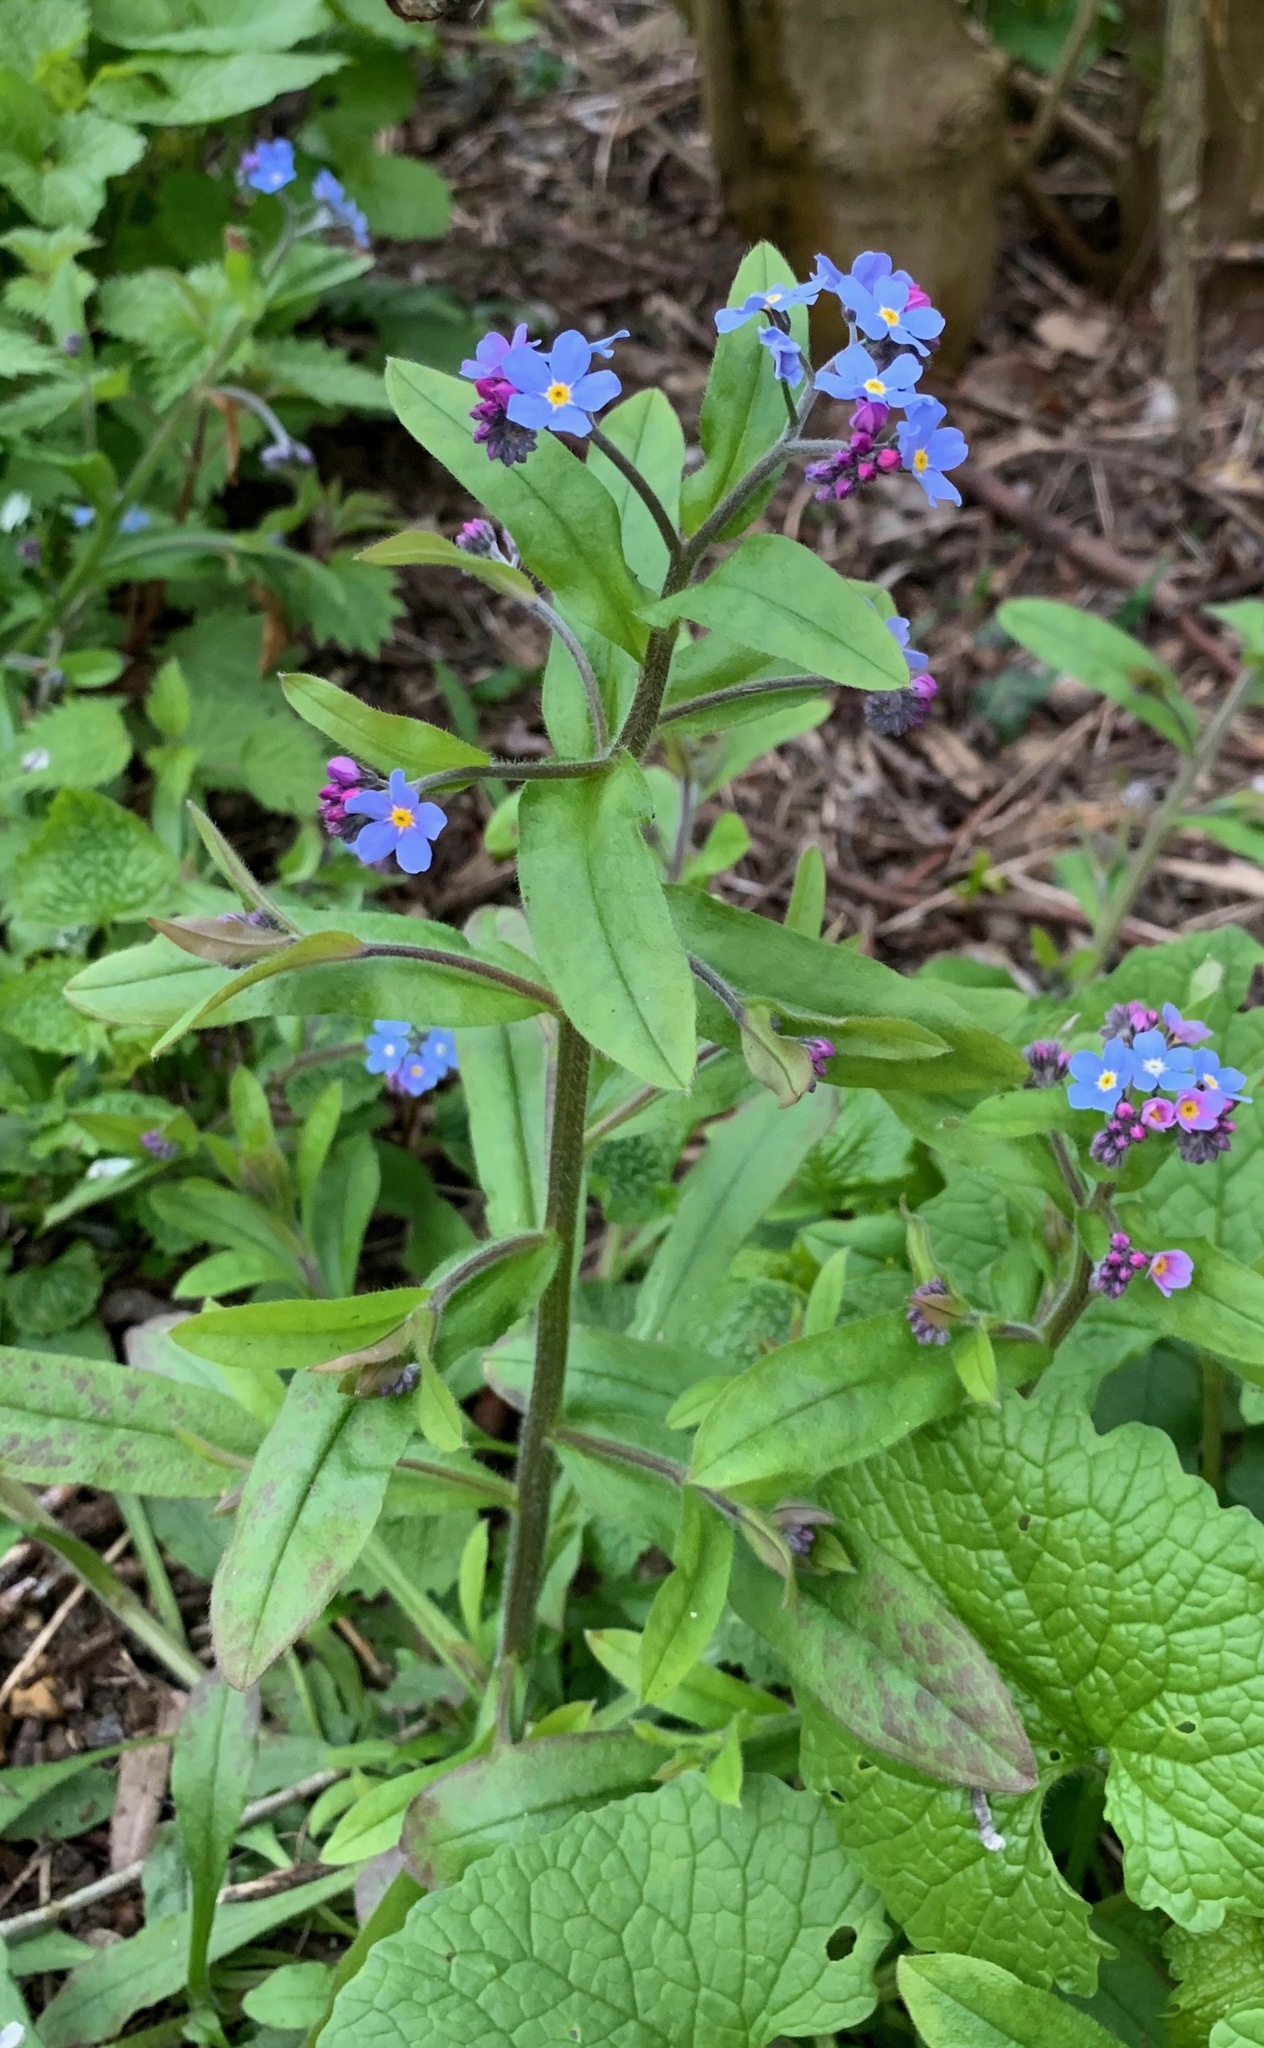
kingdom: Plantae
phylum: Tracheophyta
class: Magnoliopsida
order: Boraginales
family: Boraginaceae
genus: Myosotis
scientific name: Myosotis sylvatica
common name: Wood forget-me-not
